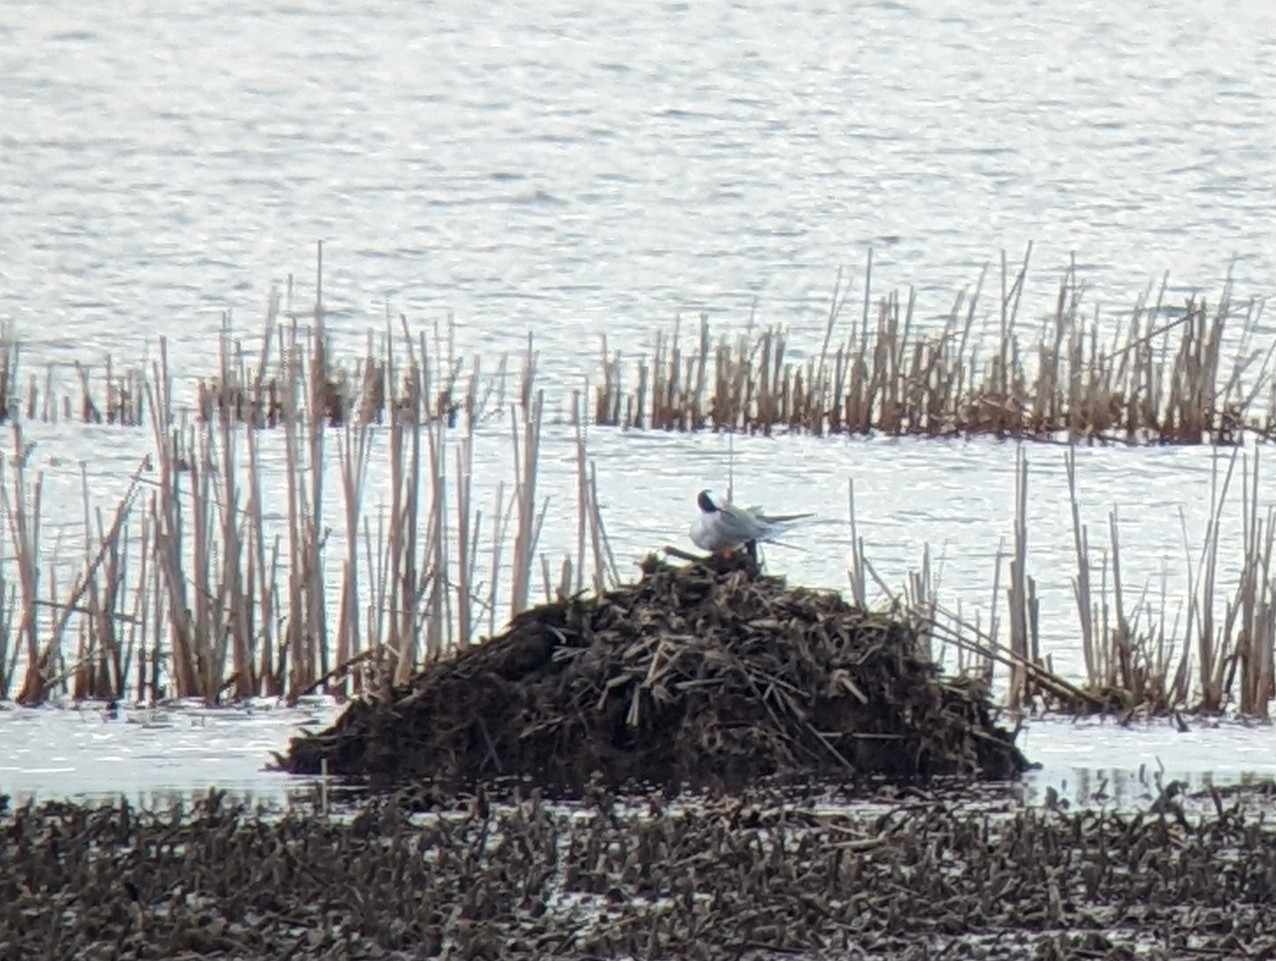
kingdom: Animalia
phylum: Chordata
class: Aves
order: Charadriiformes
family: Laridae
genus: Sterna
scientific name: Sterna forsteri
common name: Forster's tern
